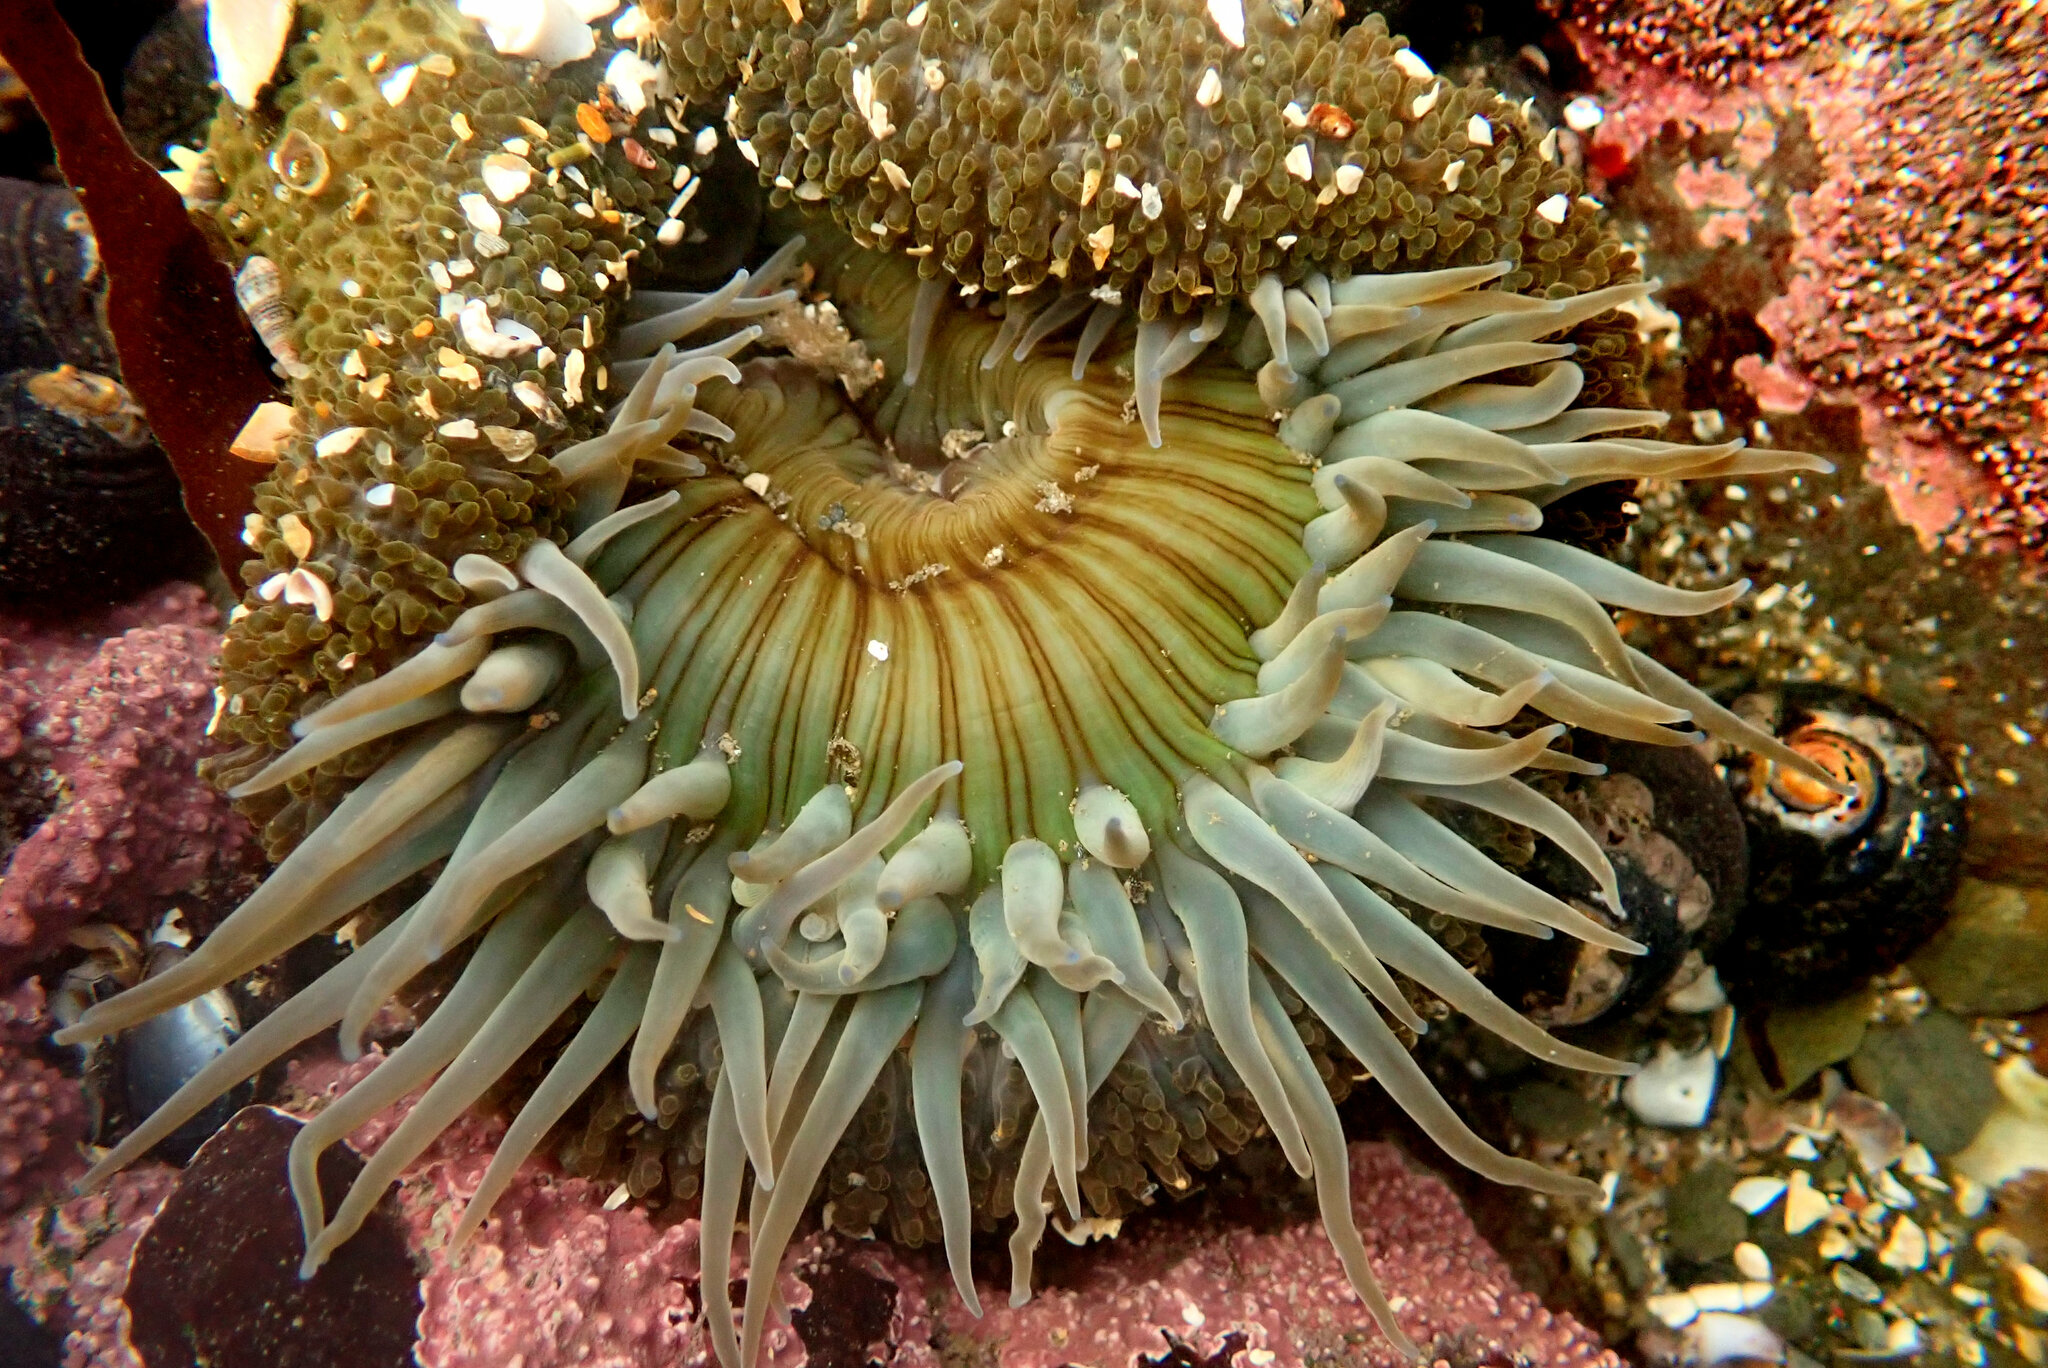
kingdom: Animalia
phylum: Cnidaria
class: Anthozoa
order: Actiniaria
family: Actiniidae
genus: Anthopleura
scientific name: Anthopleura sola
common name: Sun anemone
